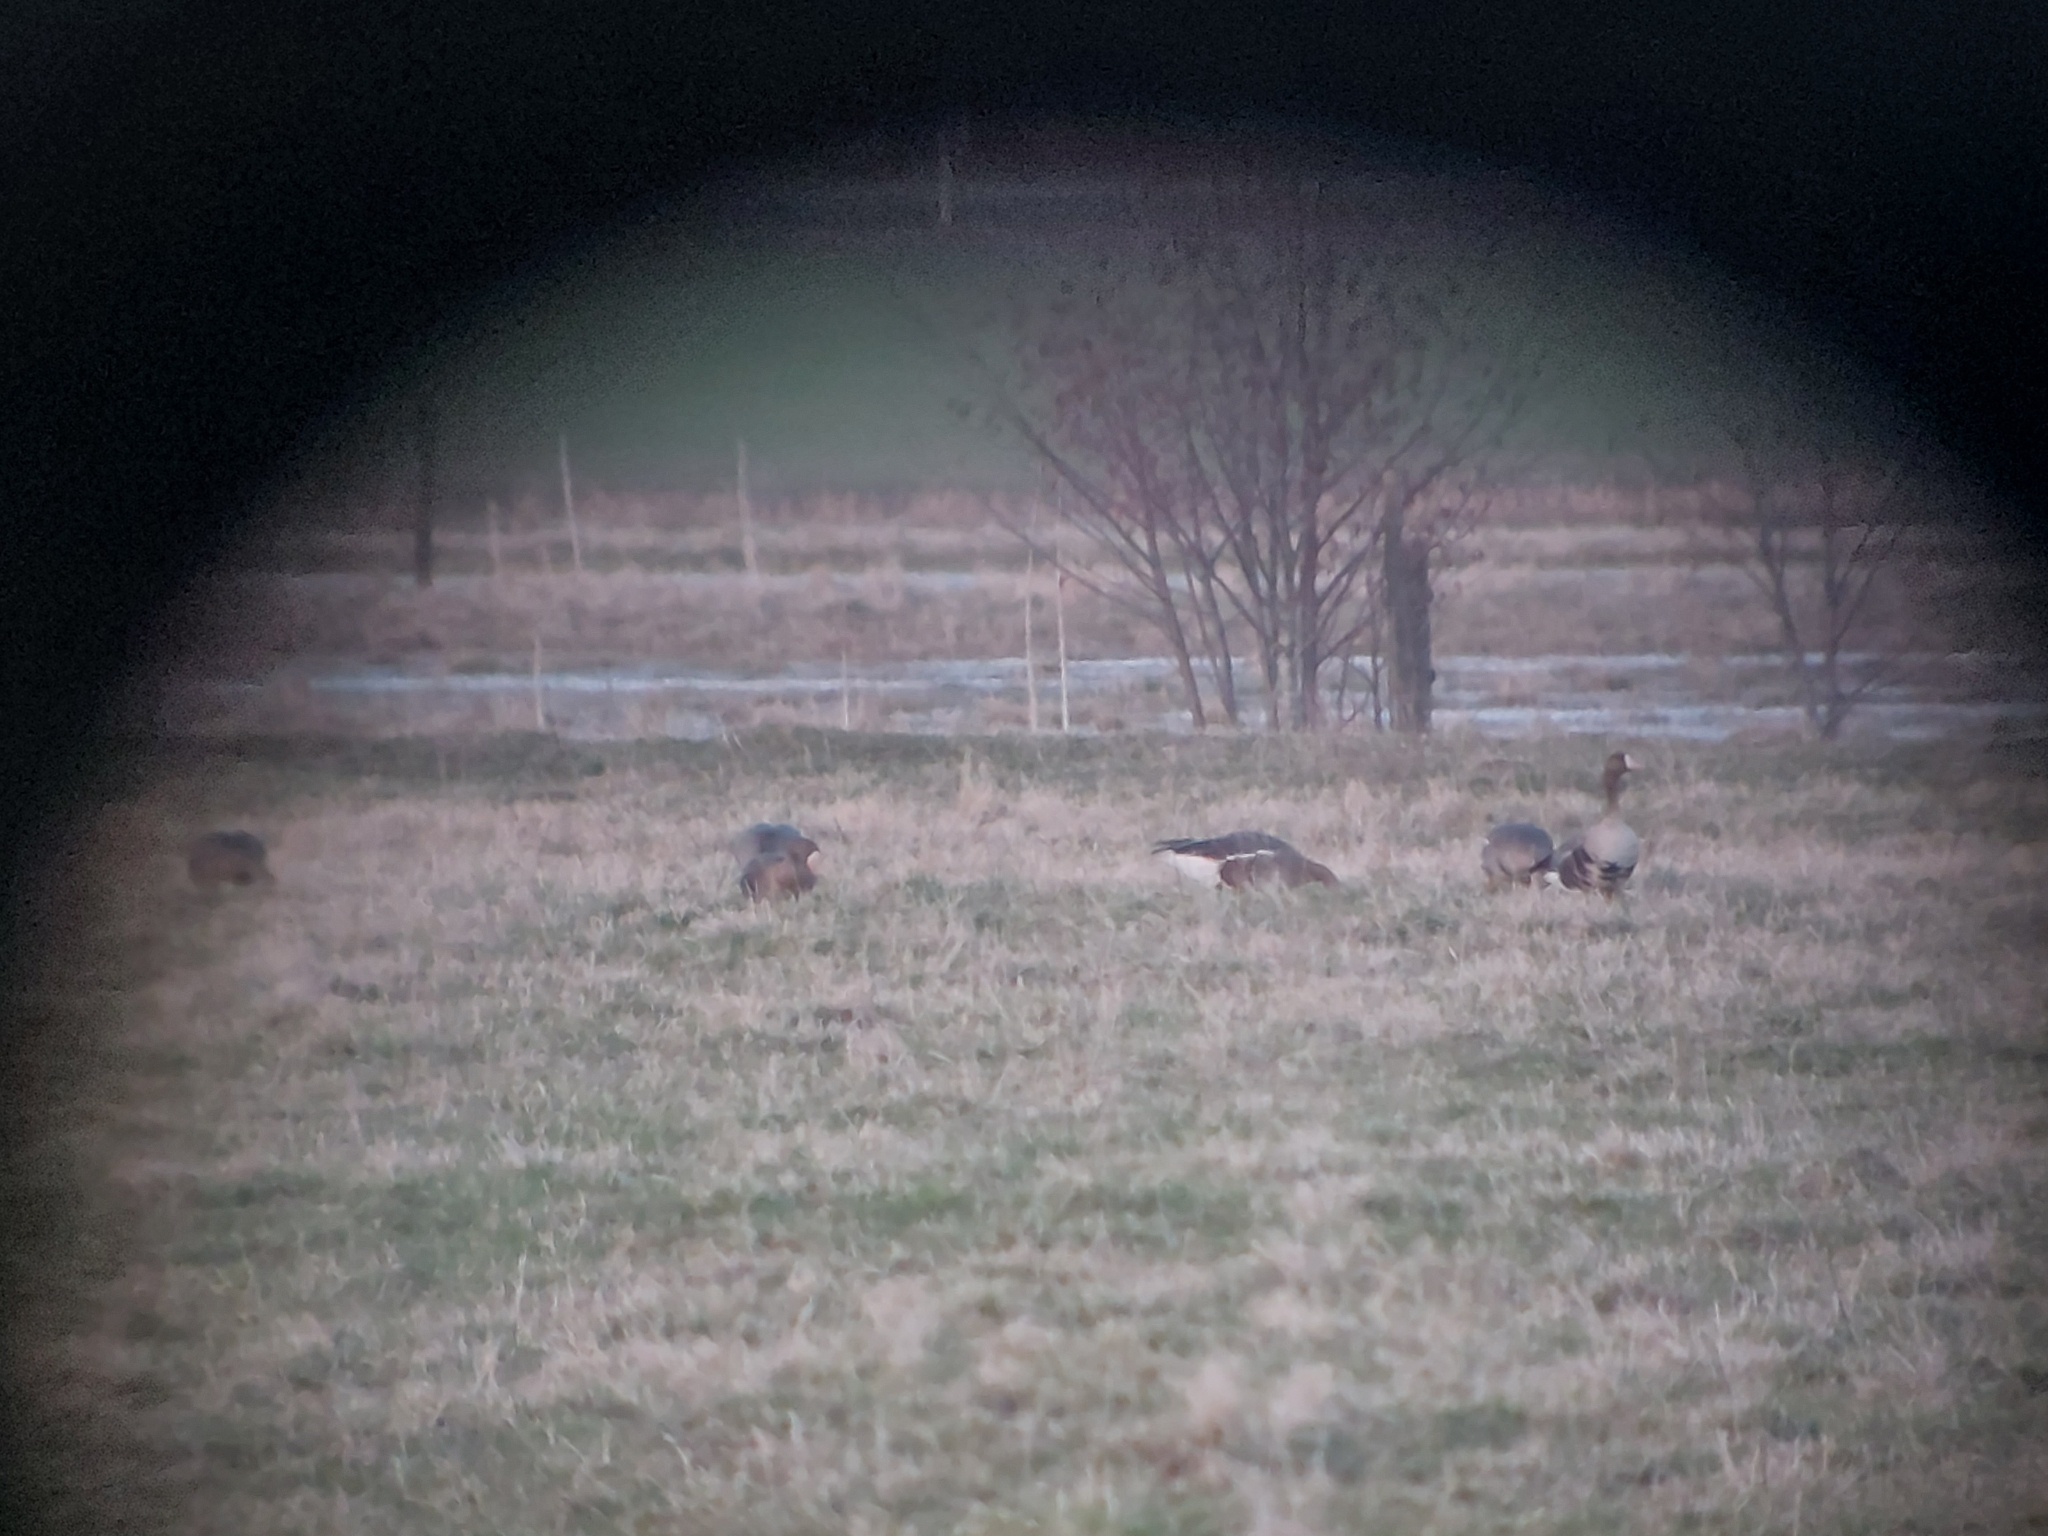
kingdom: Animalia
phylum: Chordata
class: Aves
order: Anseriformes
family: Anatidae
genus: Anser
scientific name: Anser albifrons
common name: Greater white-fronted goose
